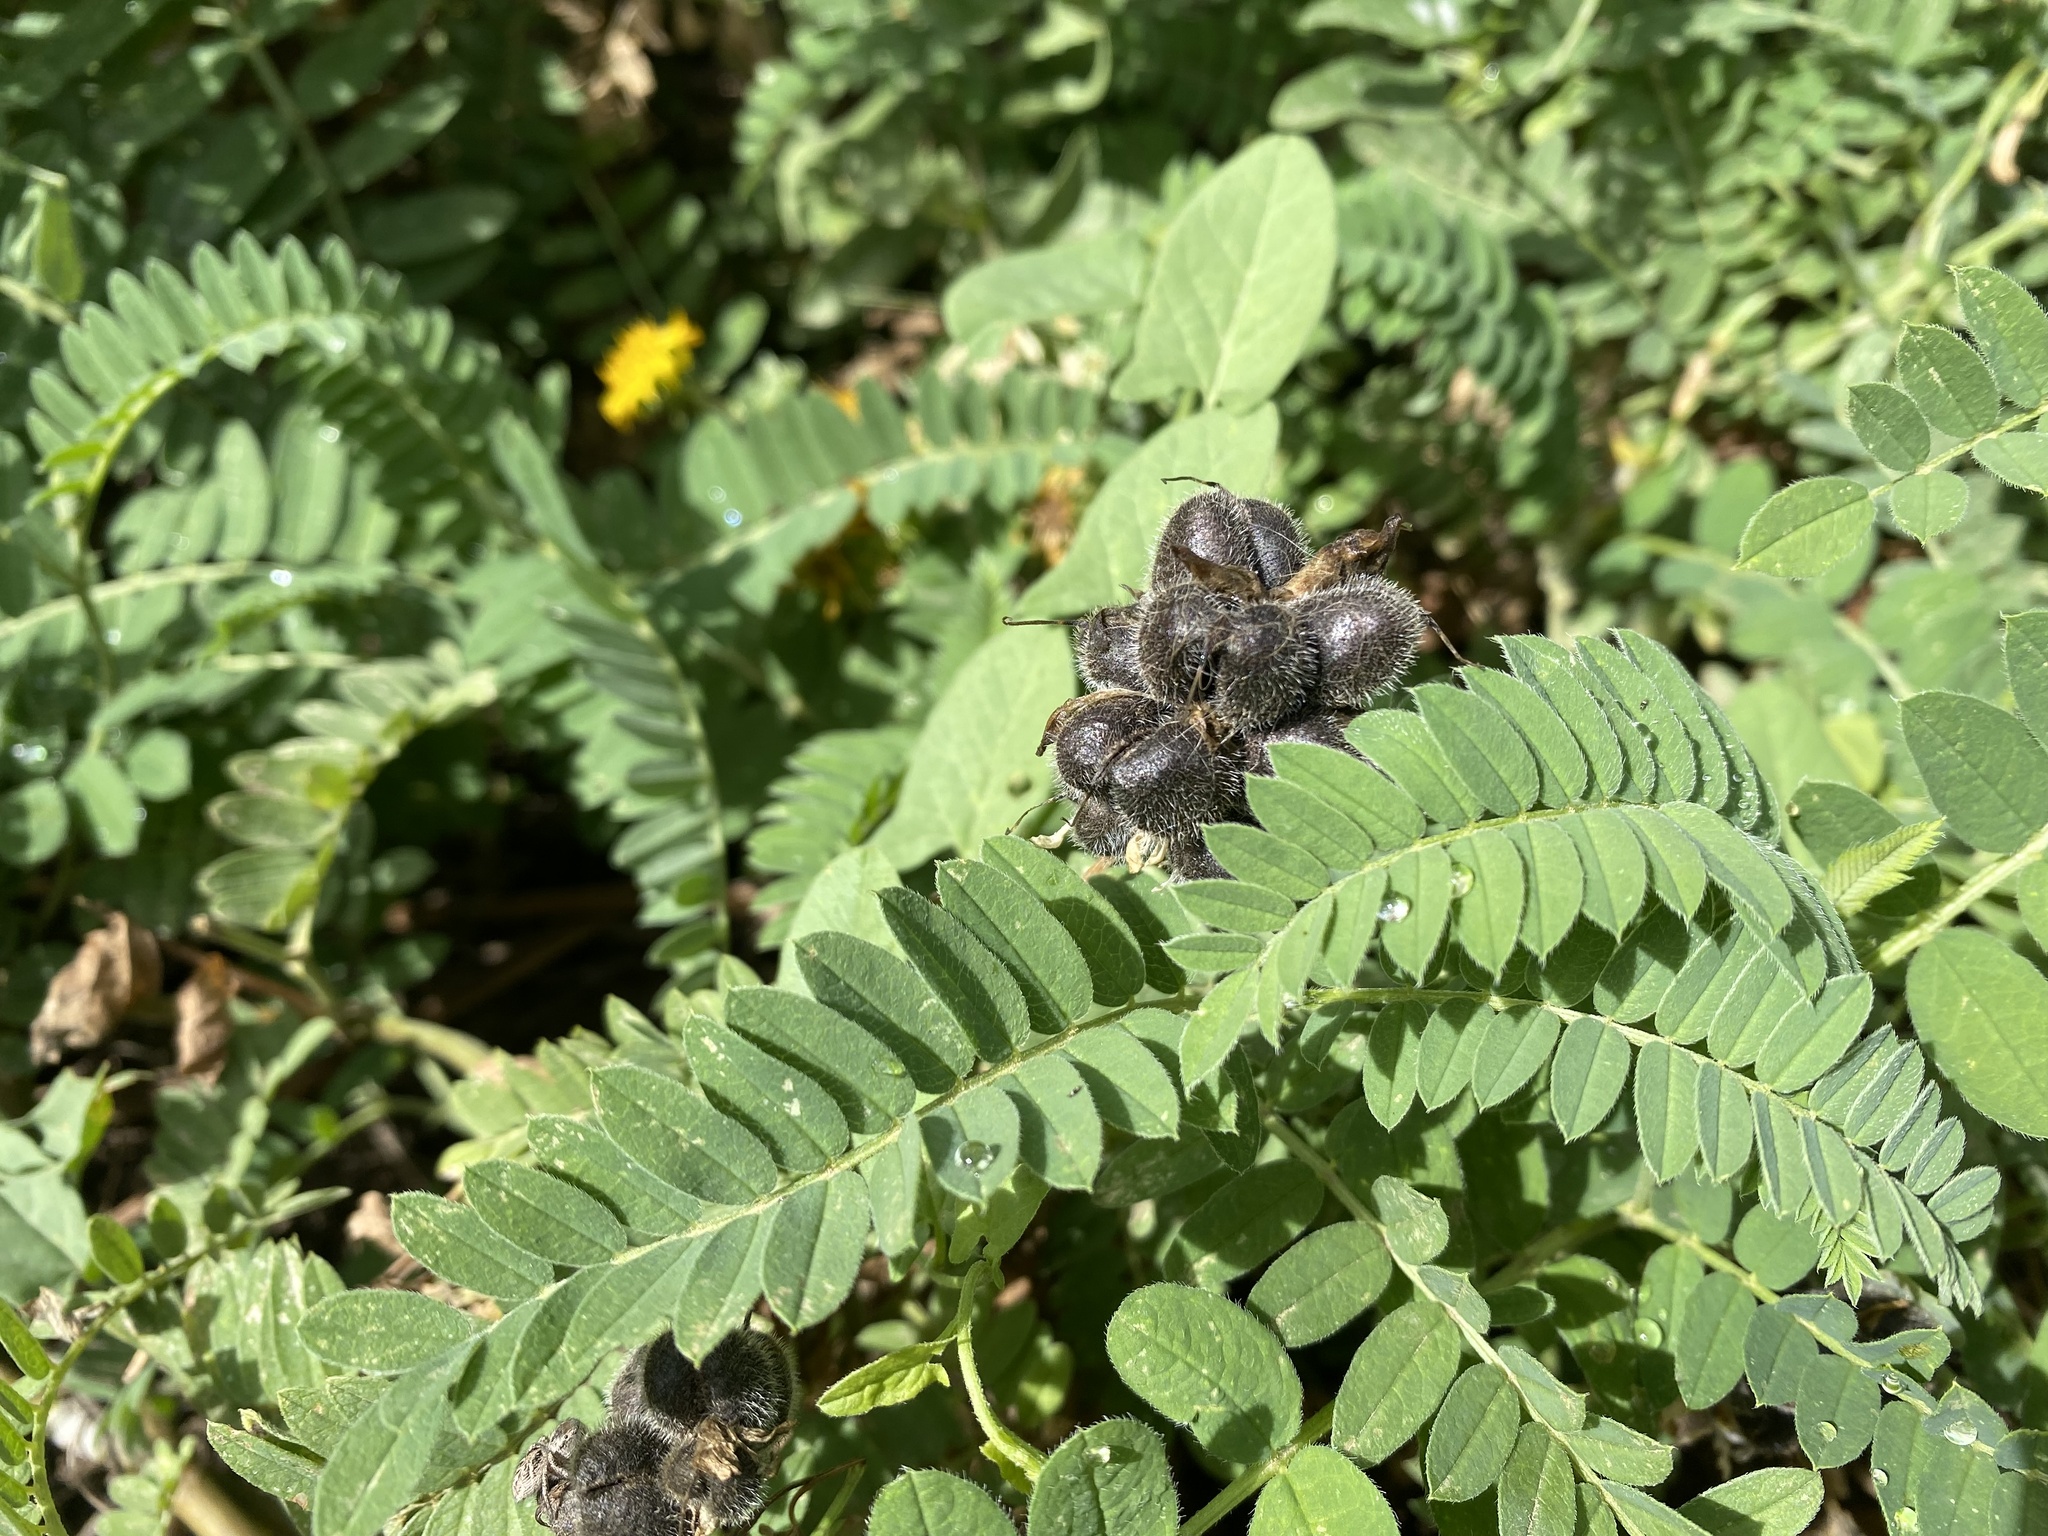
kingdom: Plantae
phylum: Tracheophyta
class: Magnoliopsida
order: Fabales
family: Fabaceae
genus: Astragalus
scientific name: Astragalus cicer
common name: Chick-pea milk-vetch
